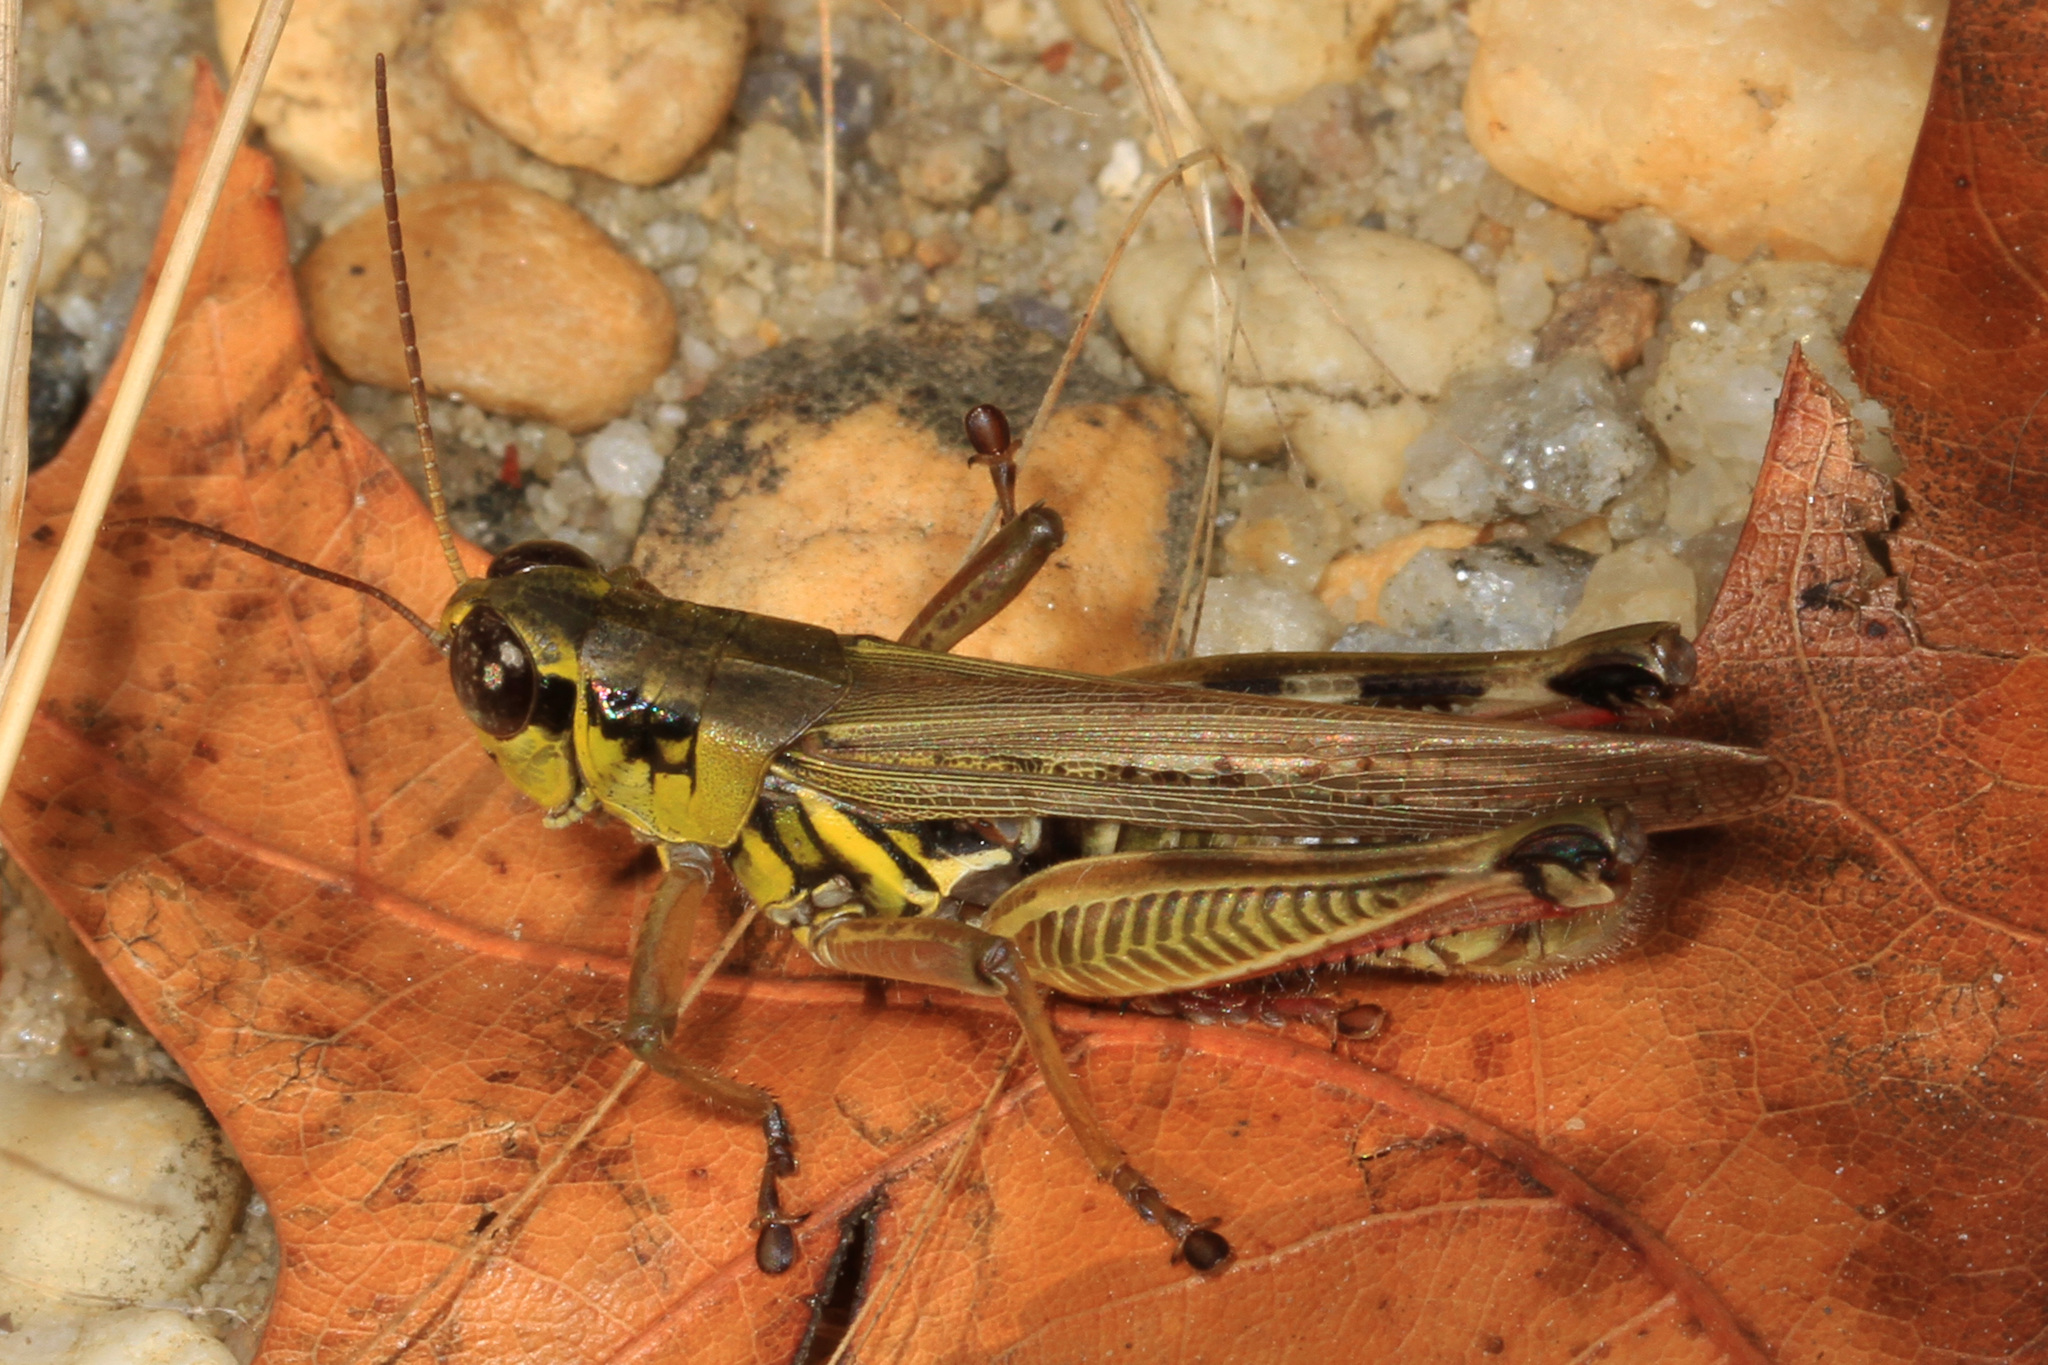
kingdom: Animalia
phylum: Arthropoda
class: Insecta
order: Orthoptera
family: Acrididae
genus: Melanoplus
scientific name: Melanoplus femurrubrum
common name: Red-legged grasshopper
